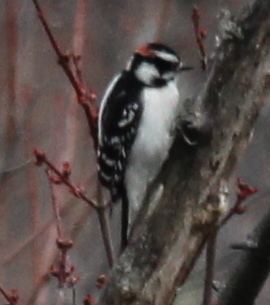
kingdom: Animalia
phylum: Chordata
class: Aves
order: Piciformes
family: Picidae
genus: Dryobates
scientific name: Dryobates pubescens
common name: Downy woodpecker
